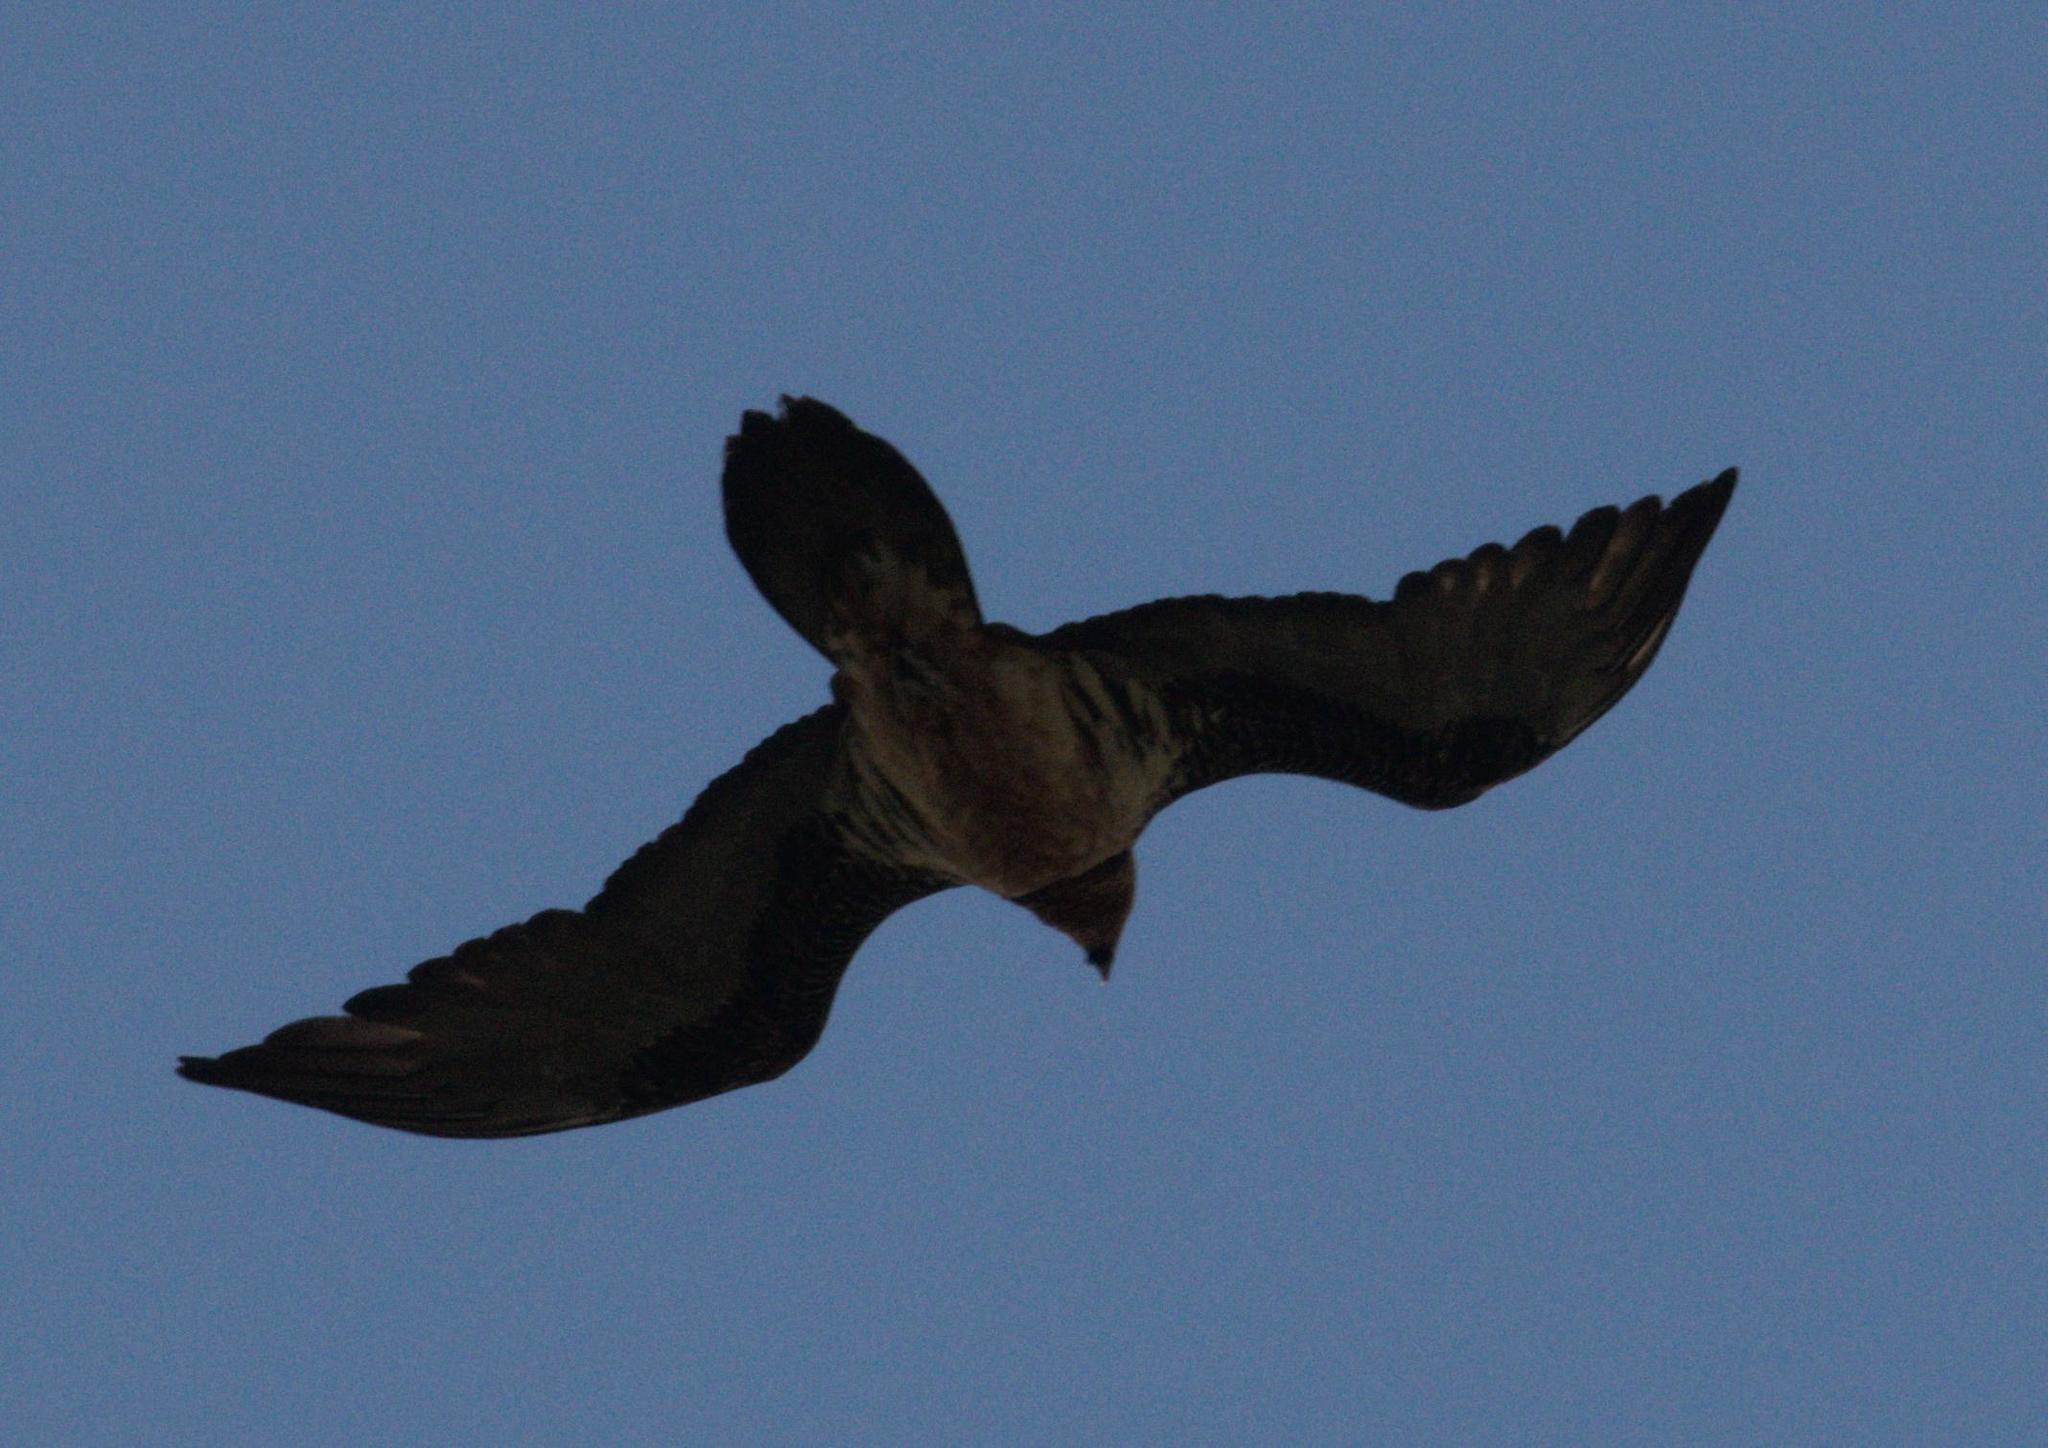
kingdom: Animalia
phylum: Chordata
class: Aves
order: Accipitriformes
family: Accipitridae
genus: Gypaetus
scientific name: Gypaetus barbatus
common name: Bearded vulture
